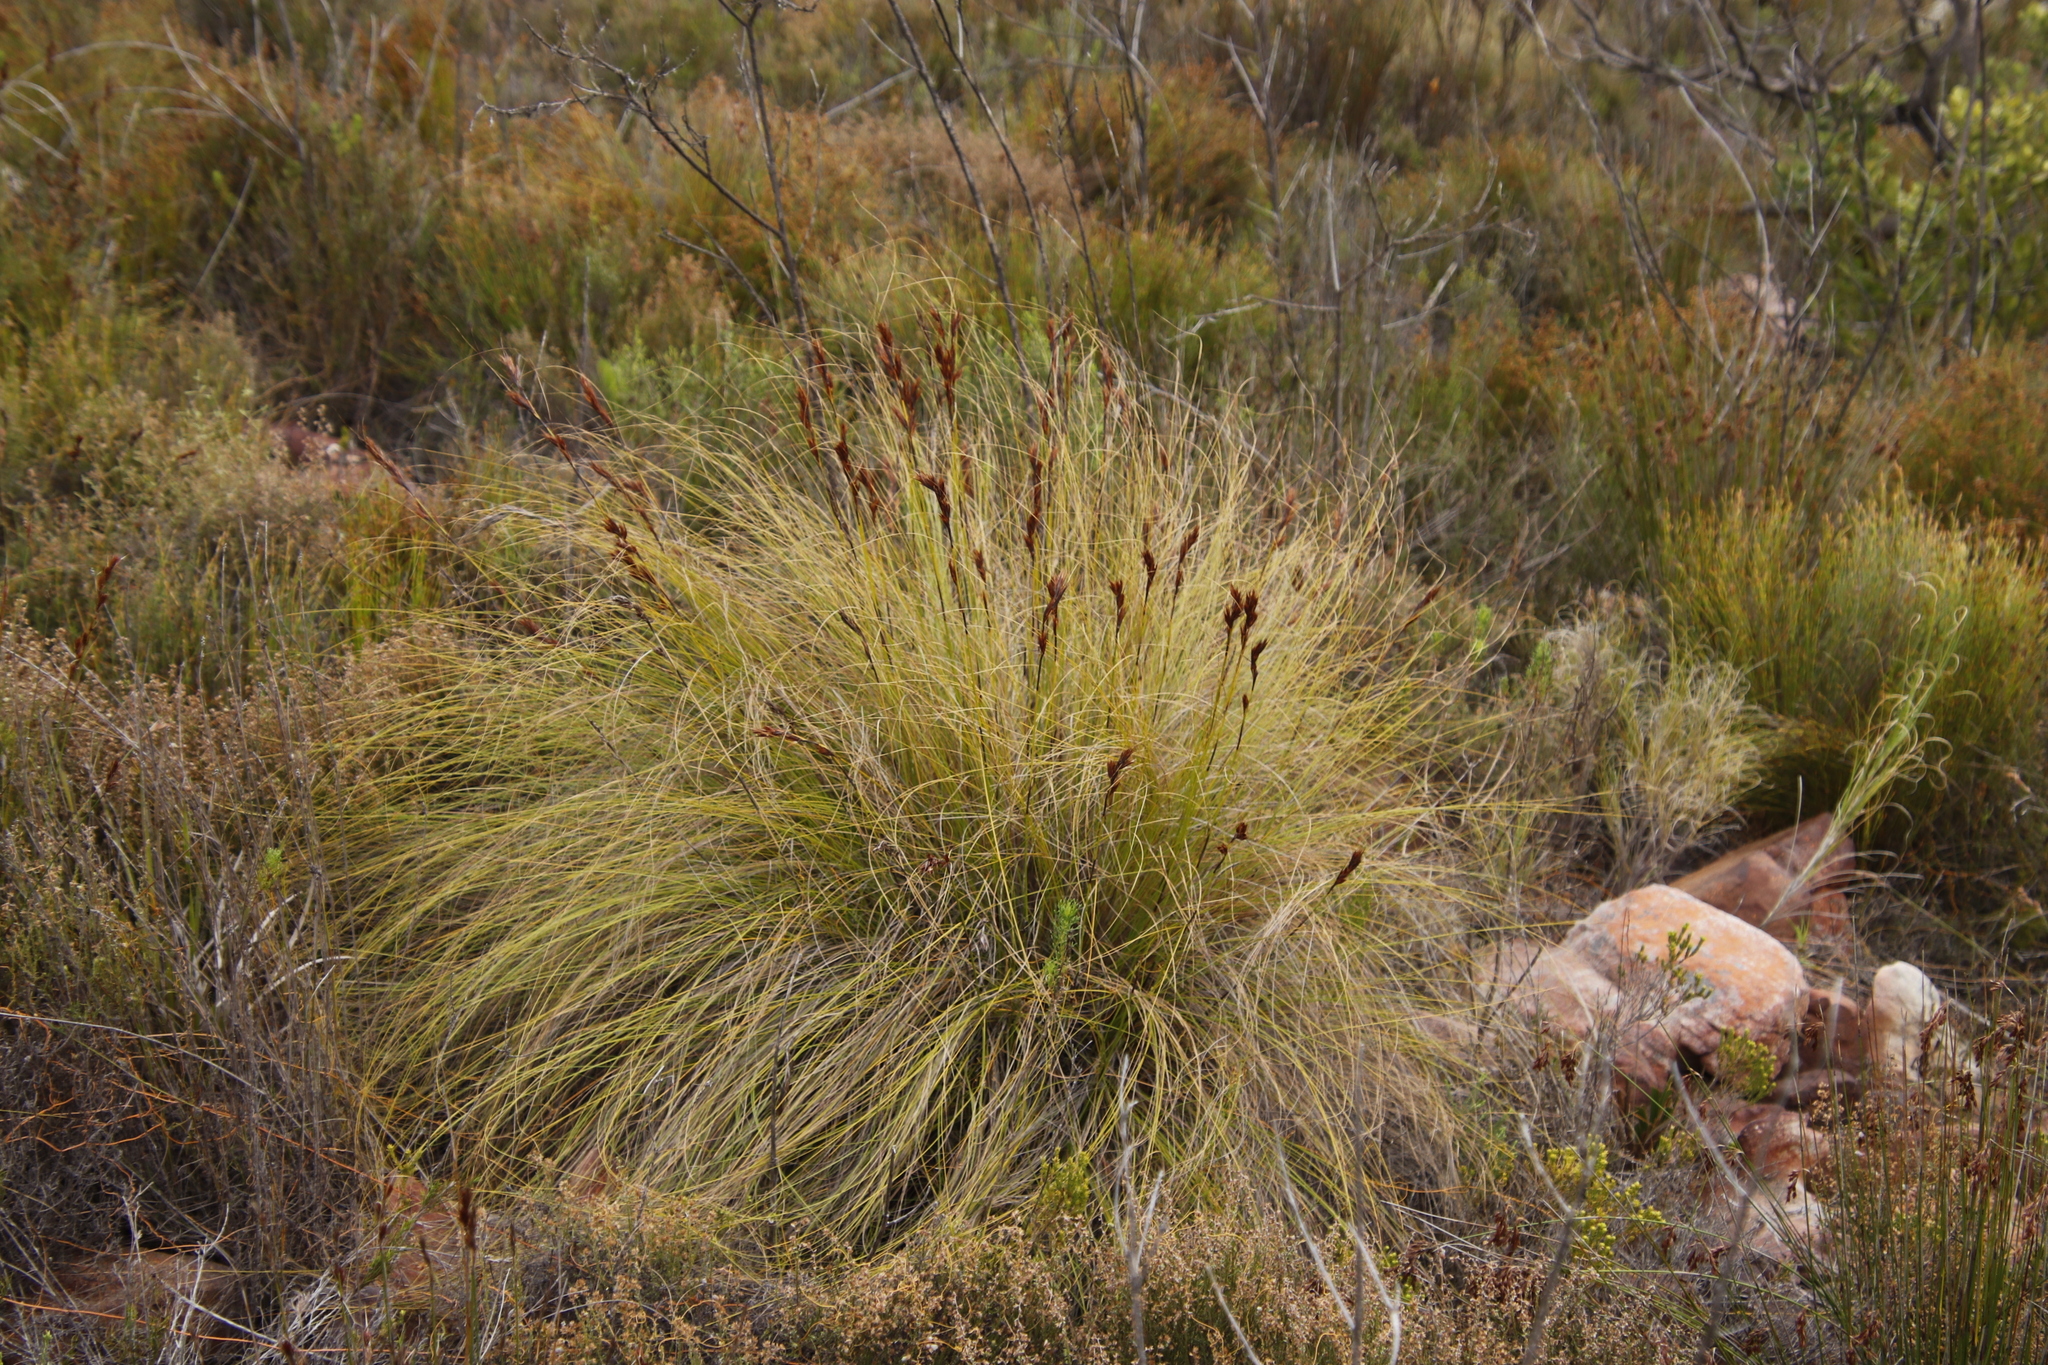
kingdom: Plantae
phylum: Tracheophyta
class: Liliopsida
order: Poales
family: Cyperaceae
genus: Tetraria
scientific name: Tetraria ustulata
